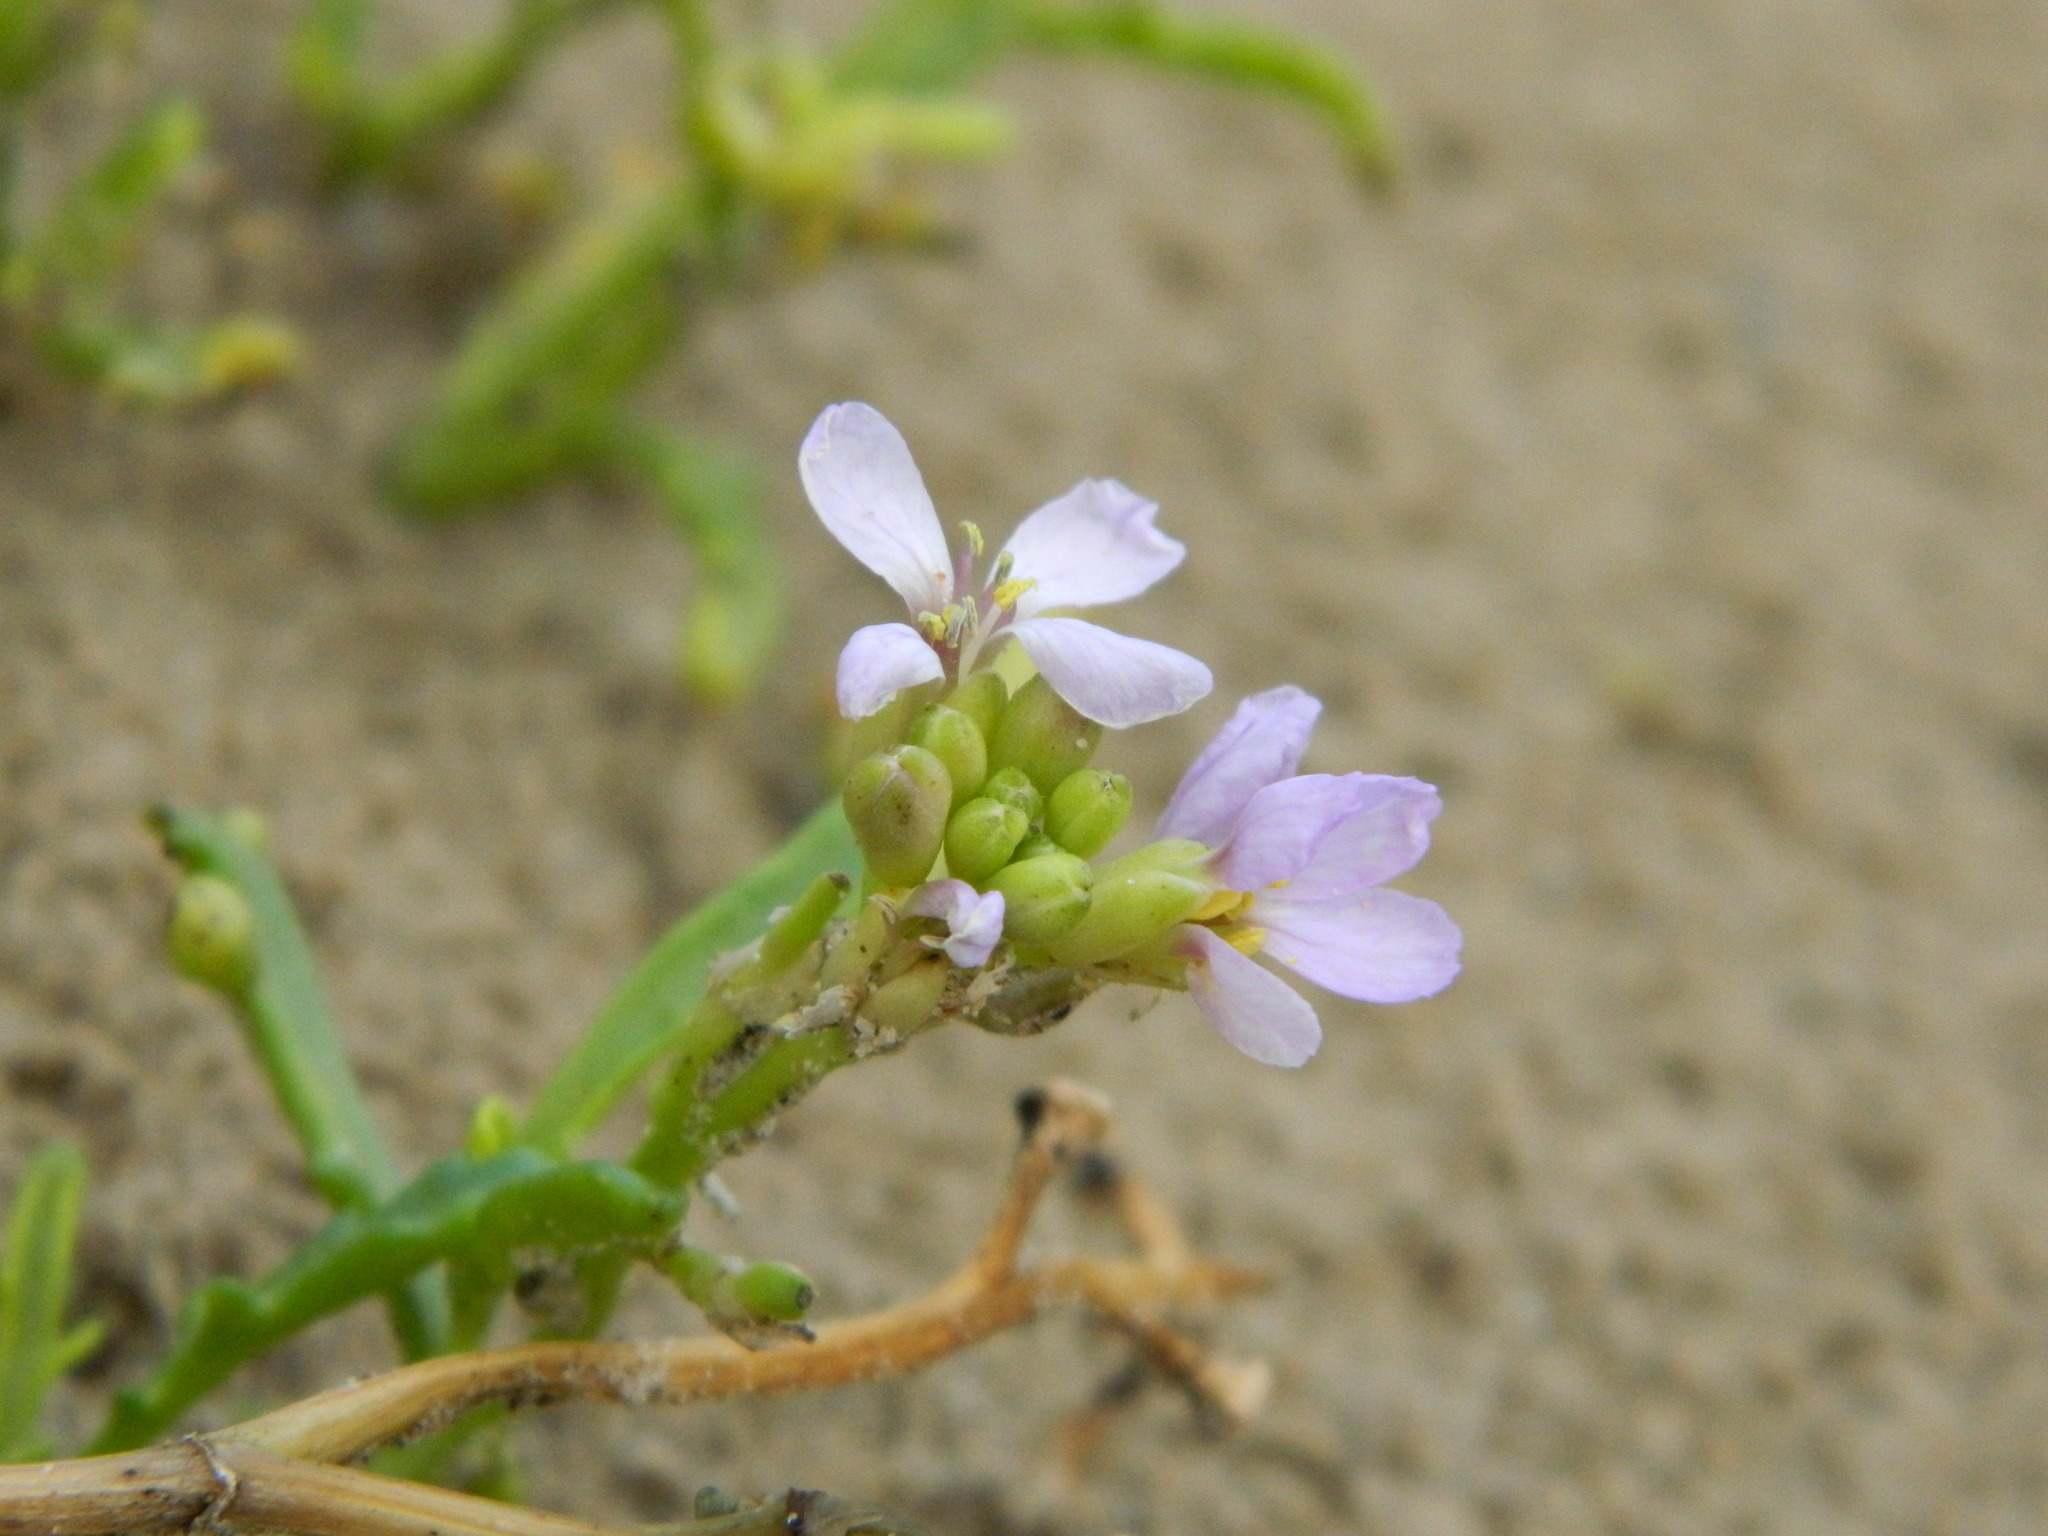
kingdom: Plantae
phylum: Tracheophyta
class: Magnoliopsida
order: Brassicales
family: Brassicaceae
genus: Cakile
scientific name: Cakile maritima
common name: Sea rocket
